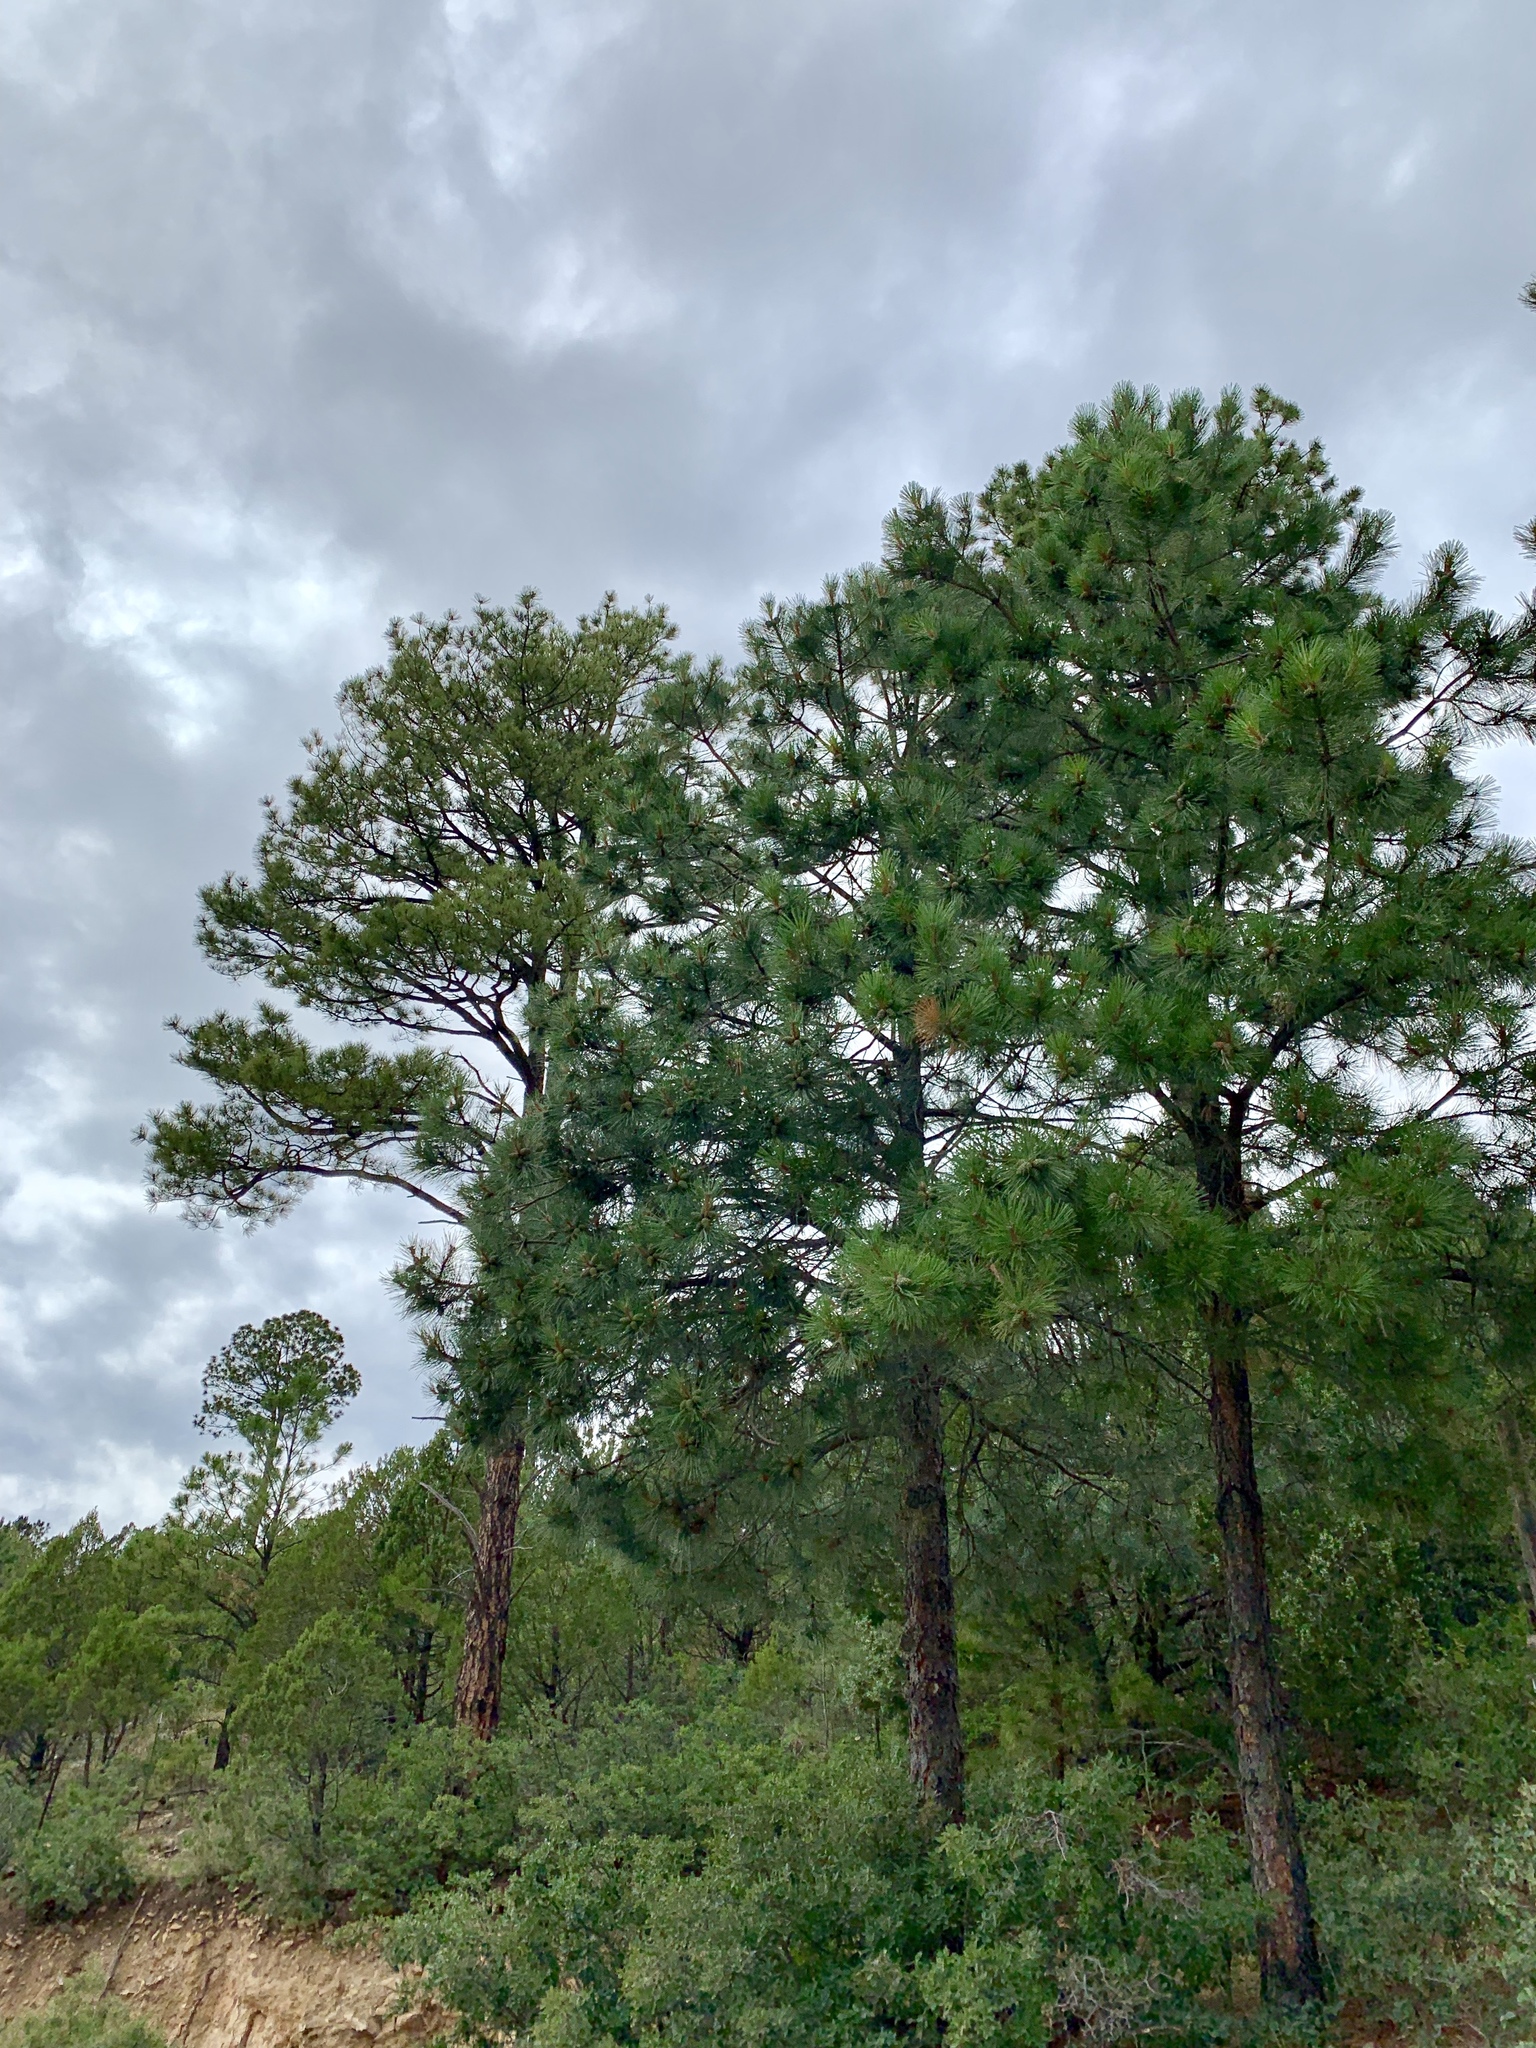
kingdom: Plantae
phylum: Tracheophyta
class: Pinopsida
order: Pinales
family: Pinaceae
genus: Pinus
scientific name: Pinus ponderosa
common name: Western yellow-pine
